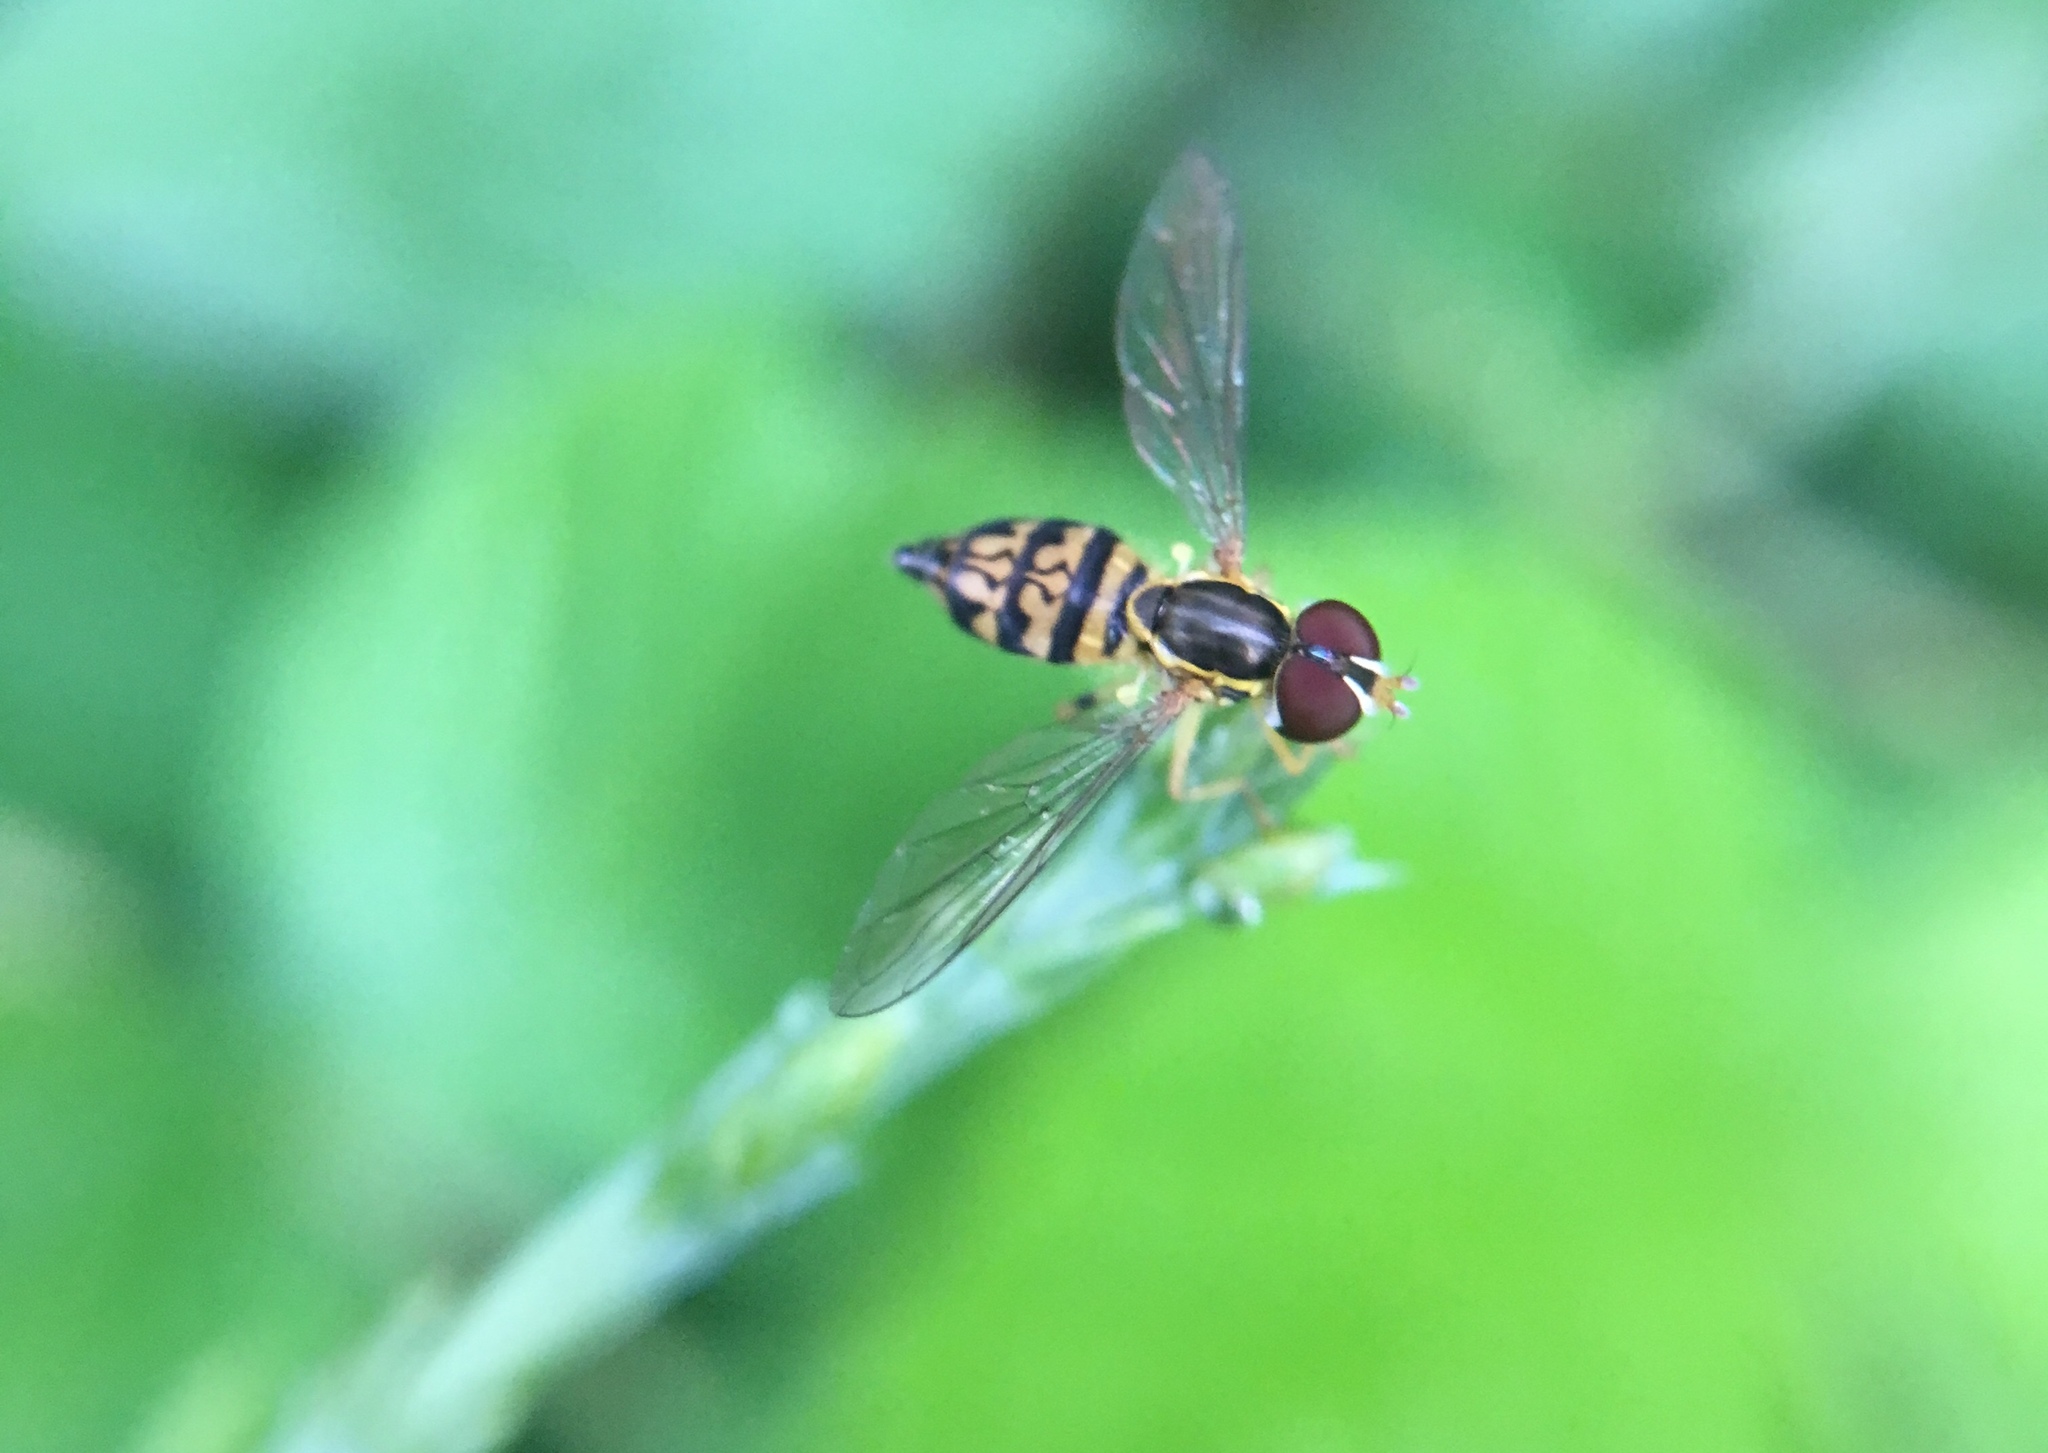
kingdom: Animalia
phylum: Arthropoda
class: Insecta
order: Diptera
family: Syrphidae
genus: Toxomerus
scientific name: Toxomerus geminatus
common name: Eastern calligrapher
